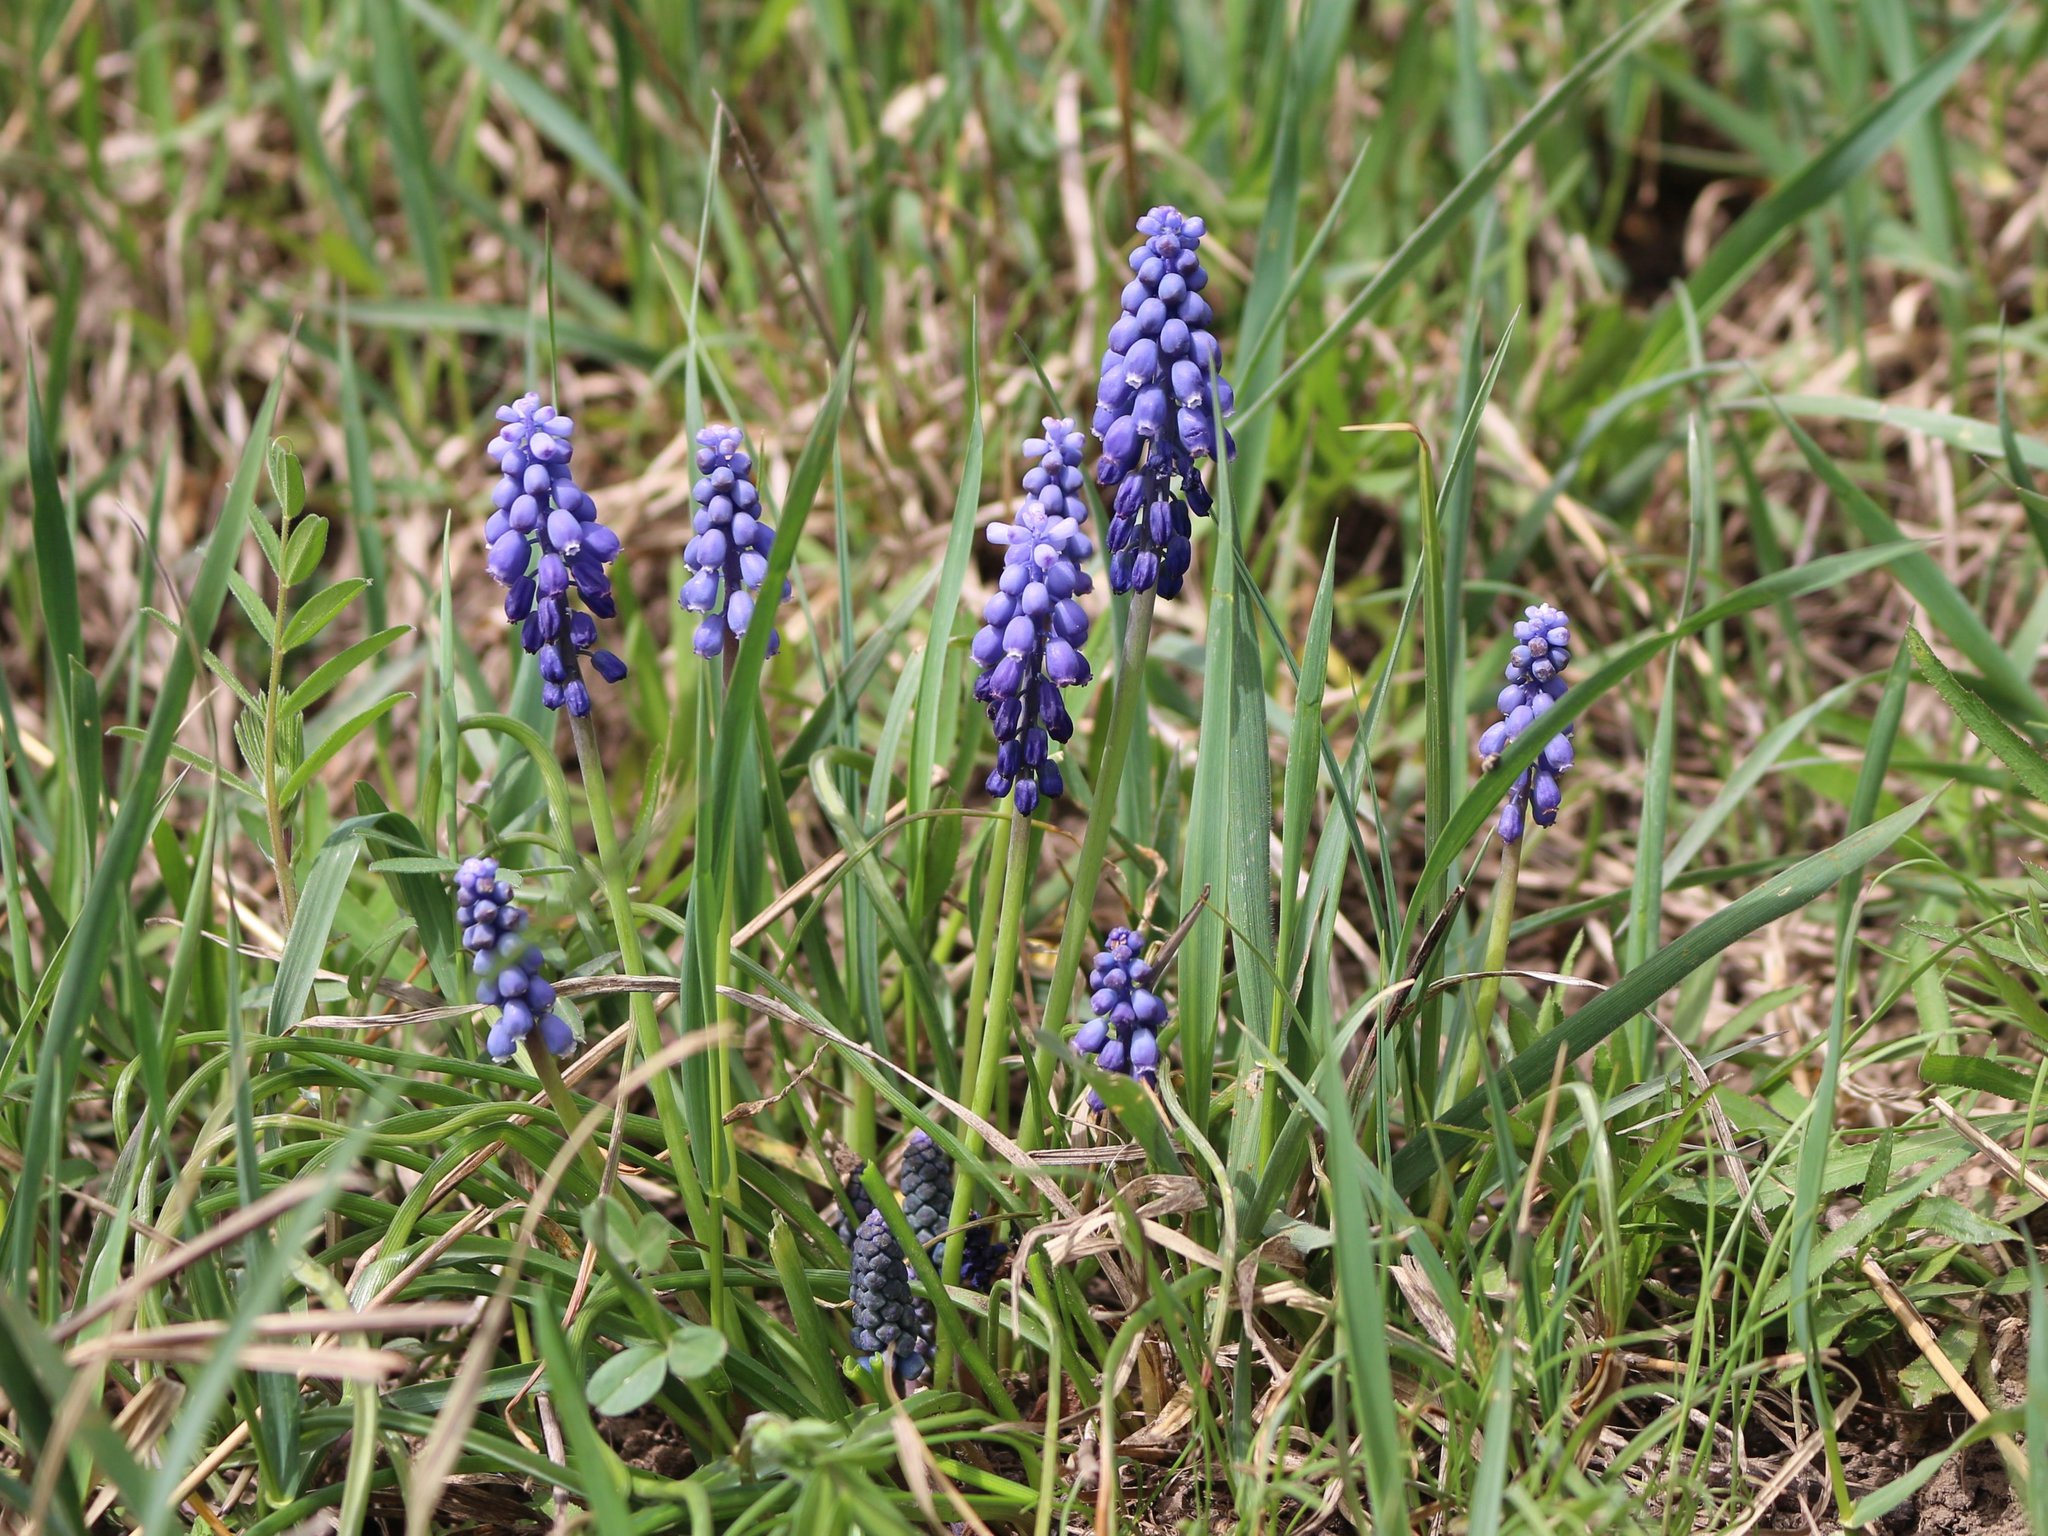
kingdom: Plantae
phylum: Tracheophyta
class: Liliopsida
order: Asparagales
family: Asparagaceae
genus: Muscari
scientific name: Muscari neglectum
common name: Grape-hyacinth
